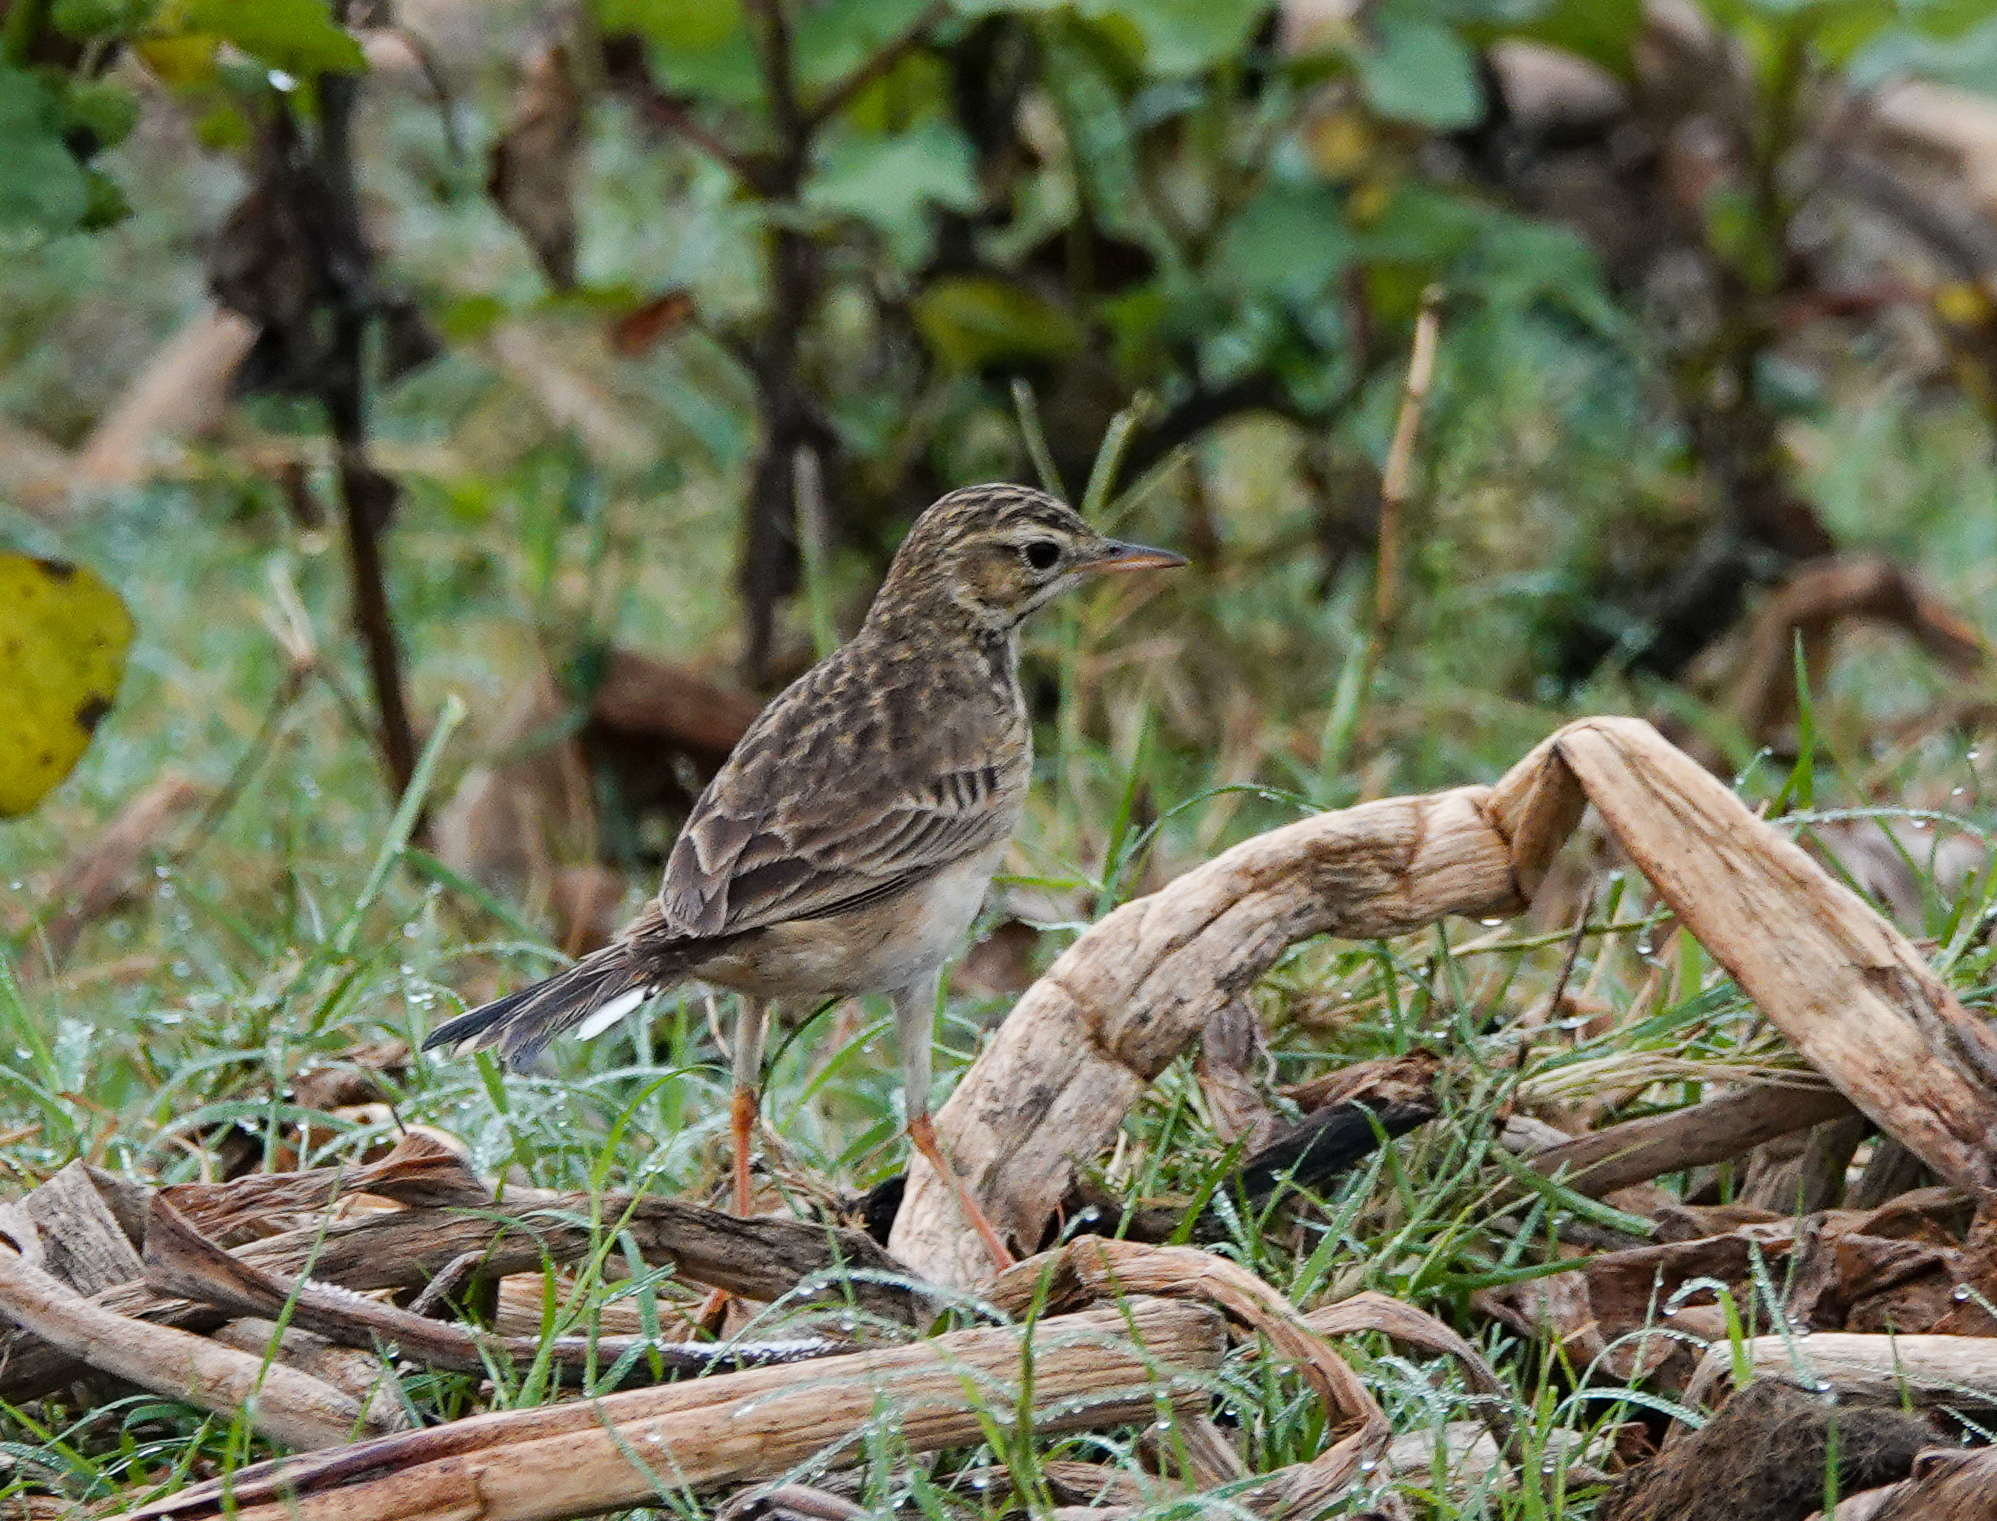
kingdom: Animalia
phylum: Chordata
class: Aves
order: Passeriformes
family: Motacillidae
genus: Anthus
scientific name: Anthus rufulus
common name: Paddyfield pipit
